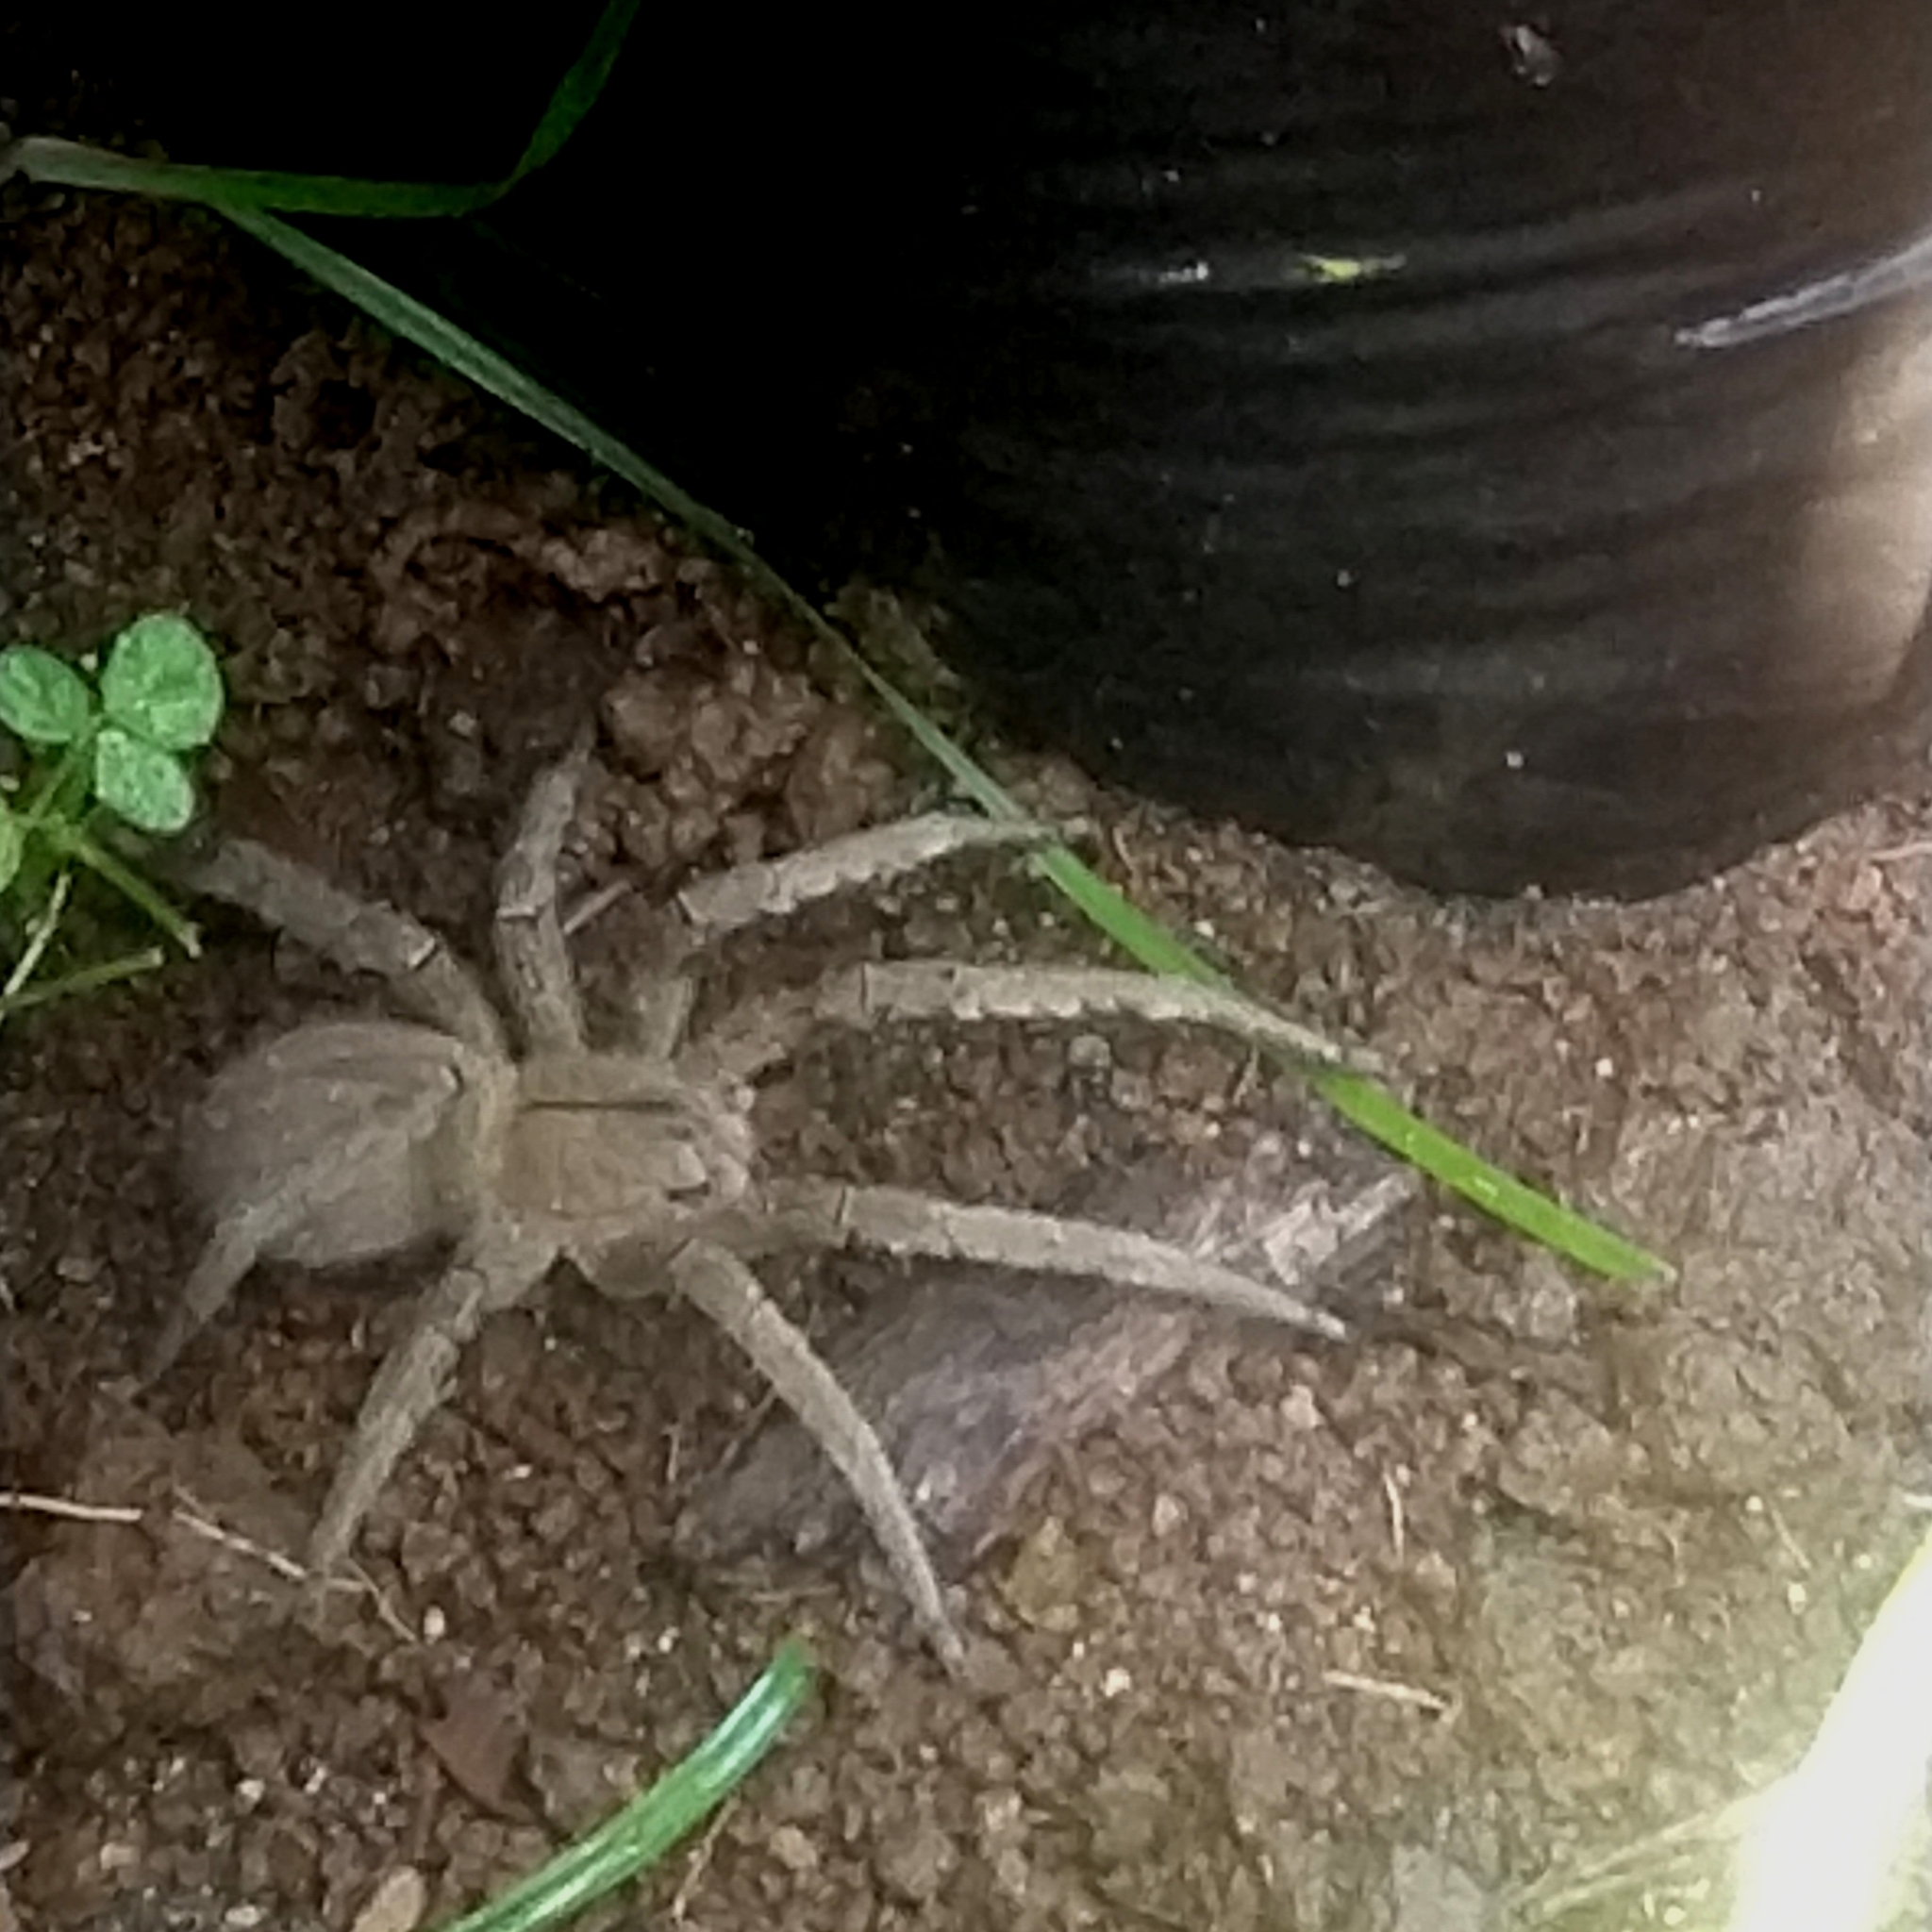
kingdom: Animalia
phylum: Arthropoda
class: Arachnida
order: Araneae
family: Ctenidae
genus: Phoneutria
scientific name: Phoneutria depilata
